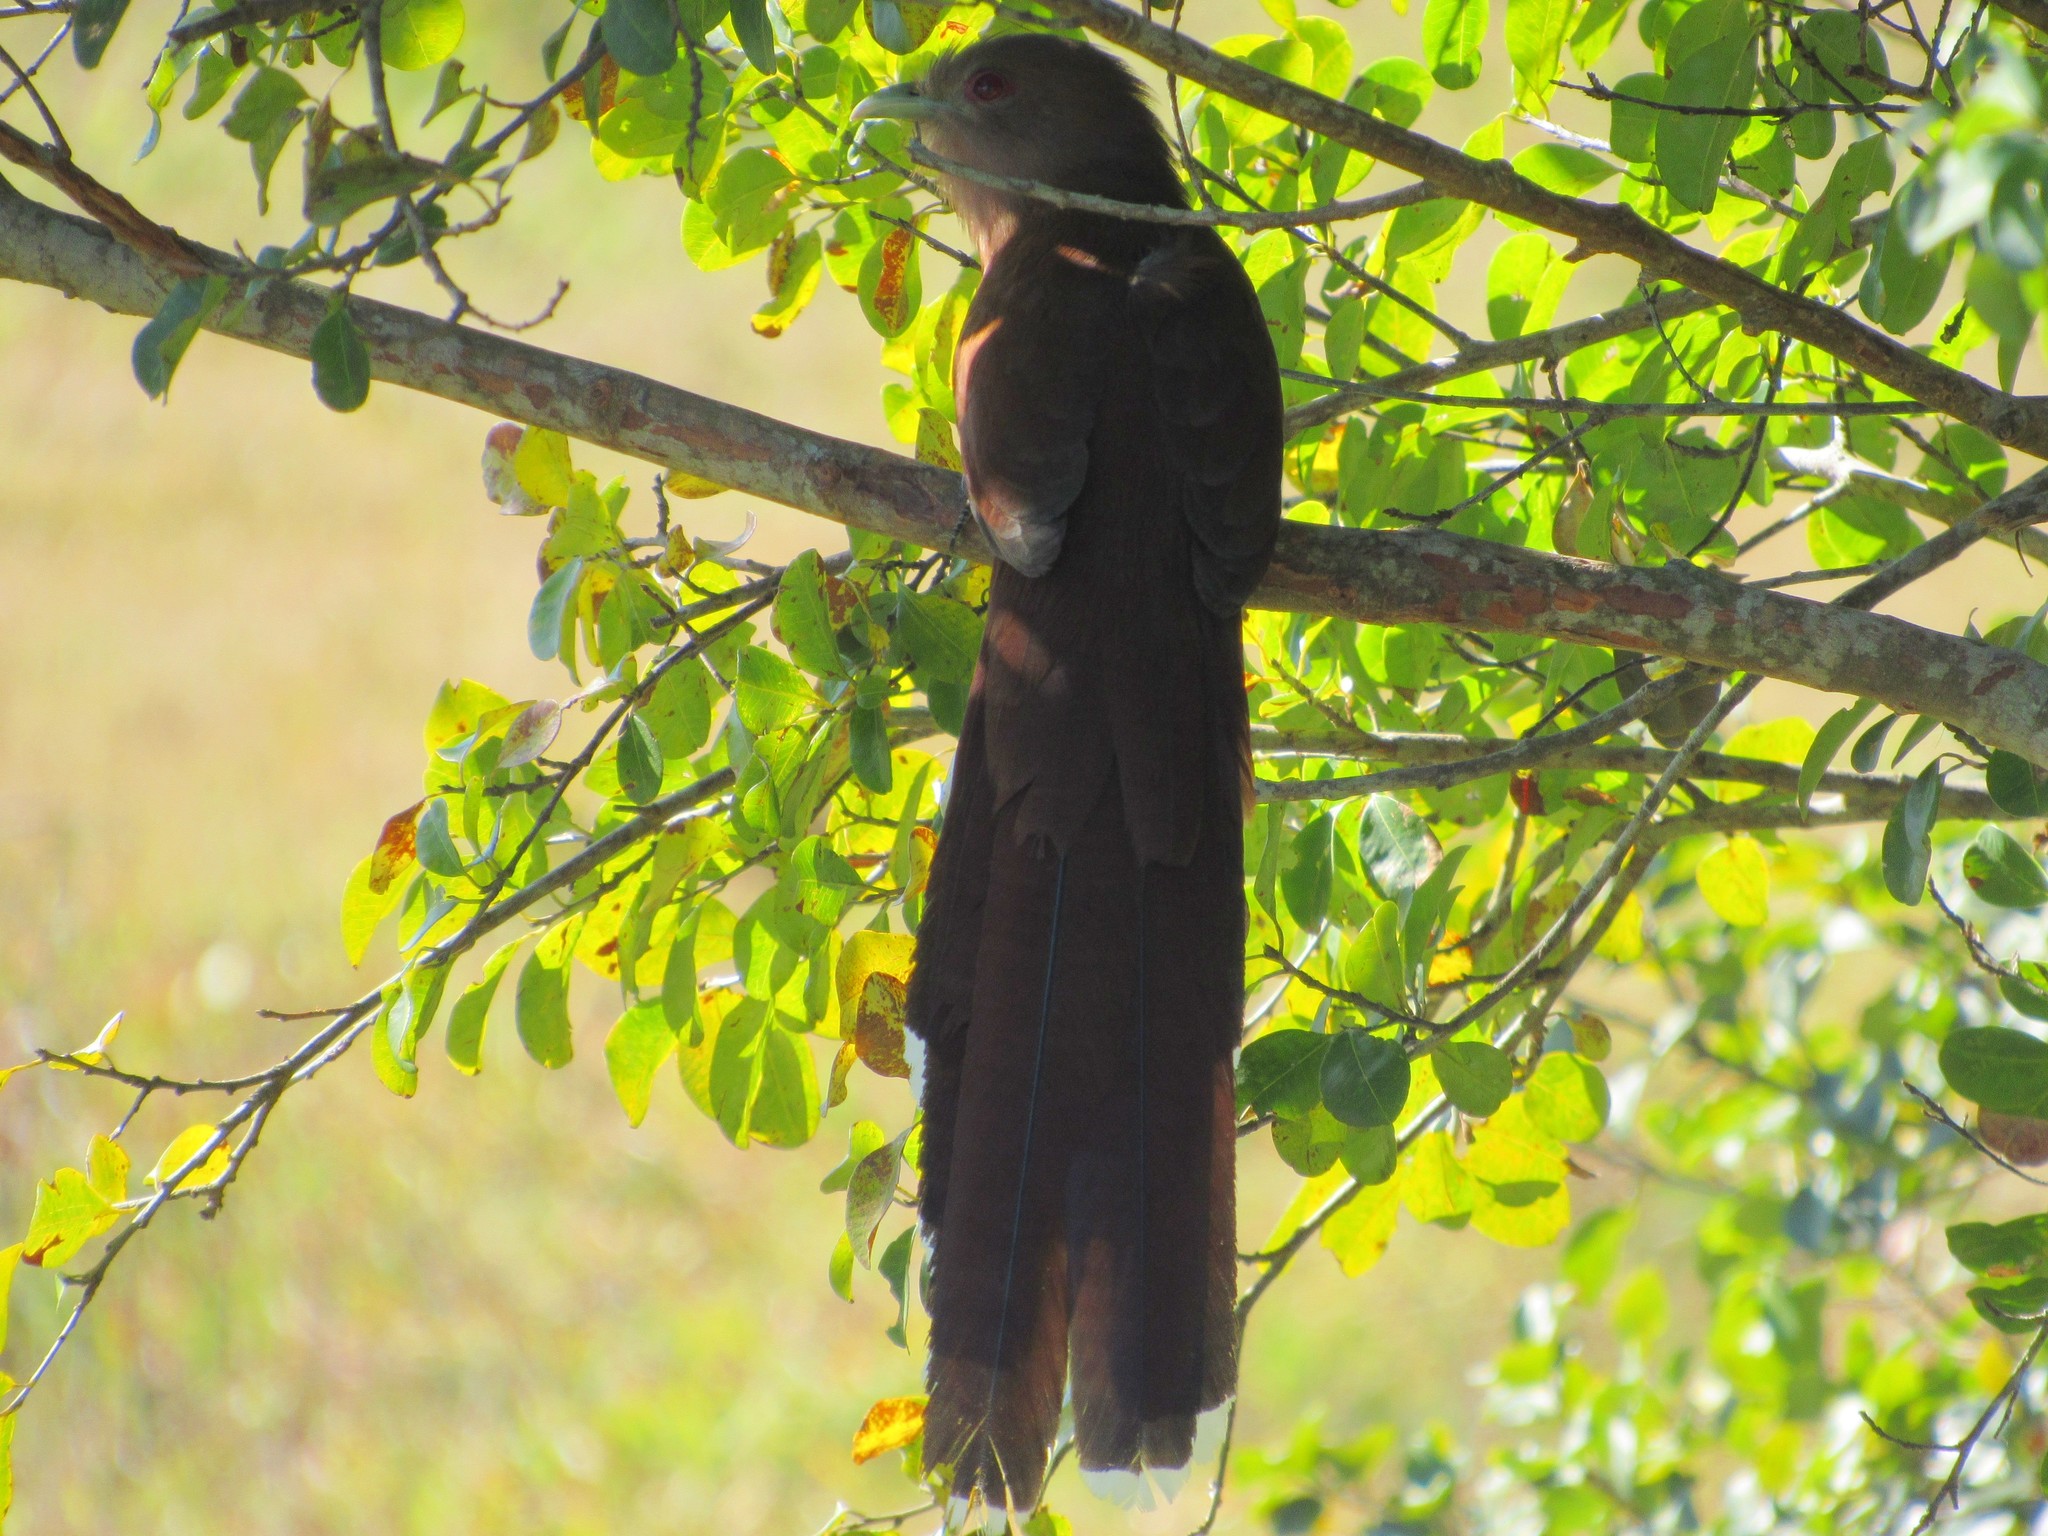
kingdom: Animalia
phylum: Chordata
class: Aves
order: Cuculiformes
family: Cuculidae
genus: Piaya
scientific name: Piaya cayana
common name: Squirrel cuckoo
